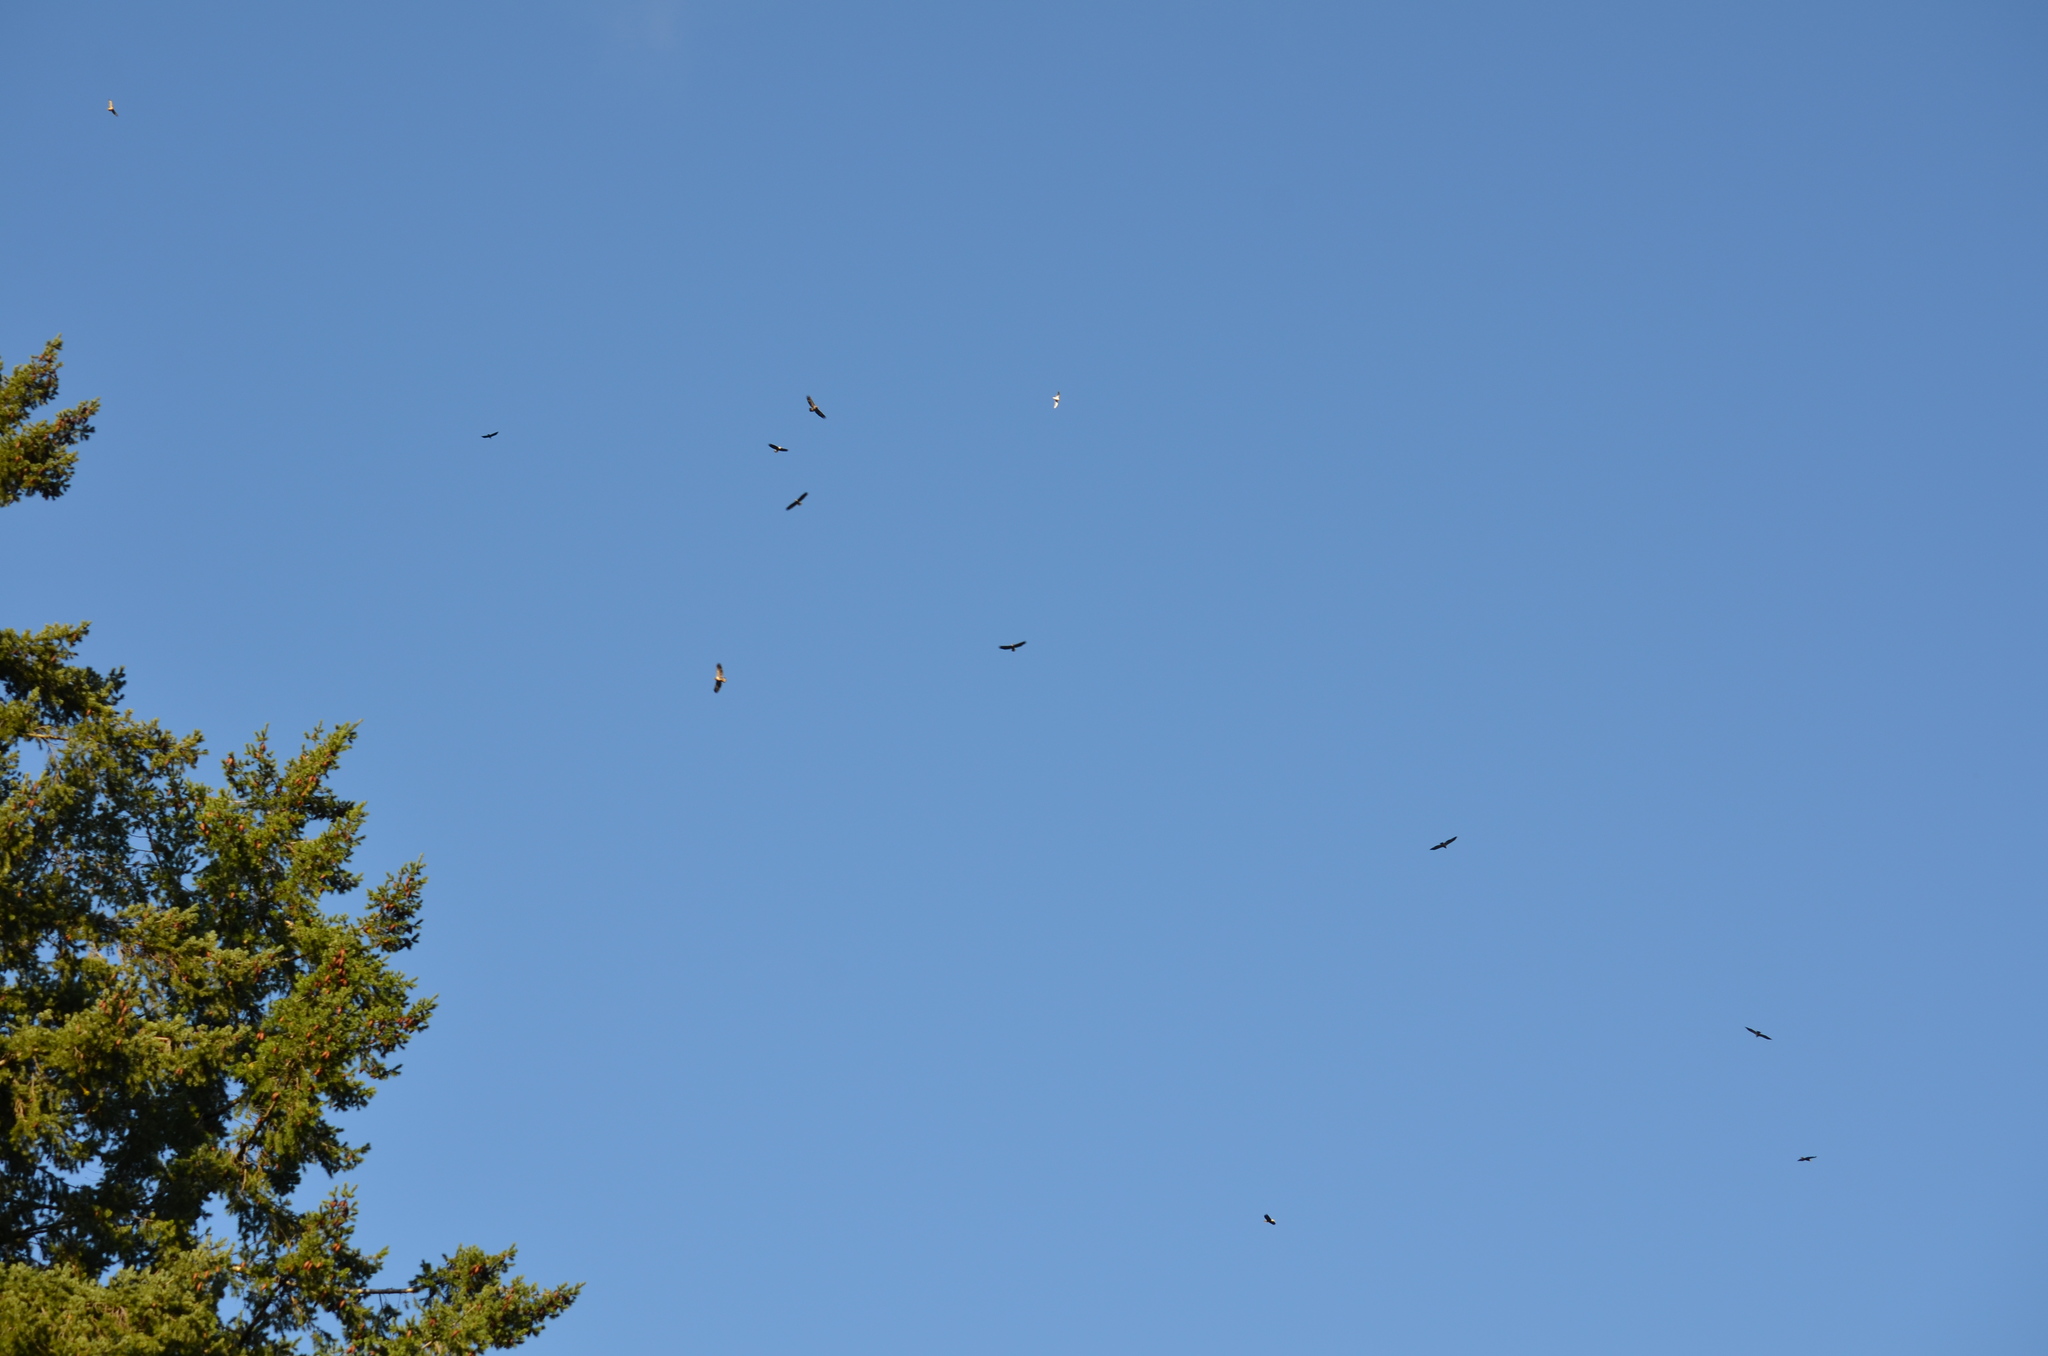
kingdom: Animalia
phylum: Chordata
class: Aves
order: Accipitriformes
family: Accipitridae
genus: Haliaeetus
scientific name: Haliaeetus leucocephalus
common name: Bald eagle
